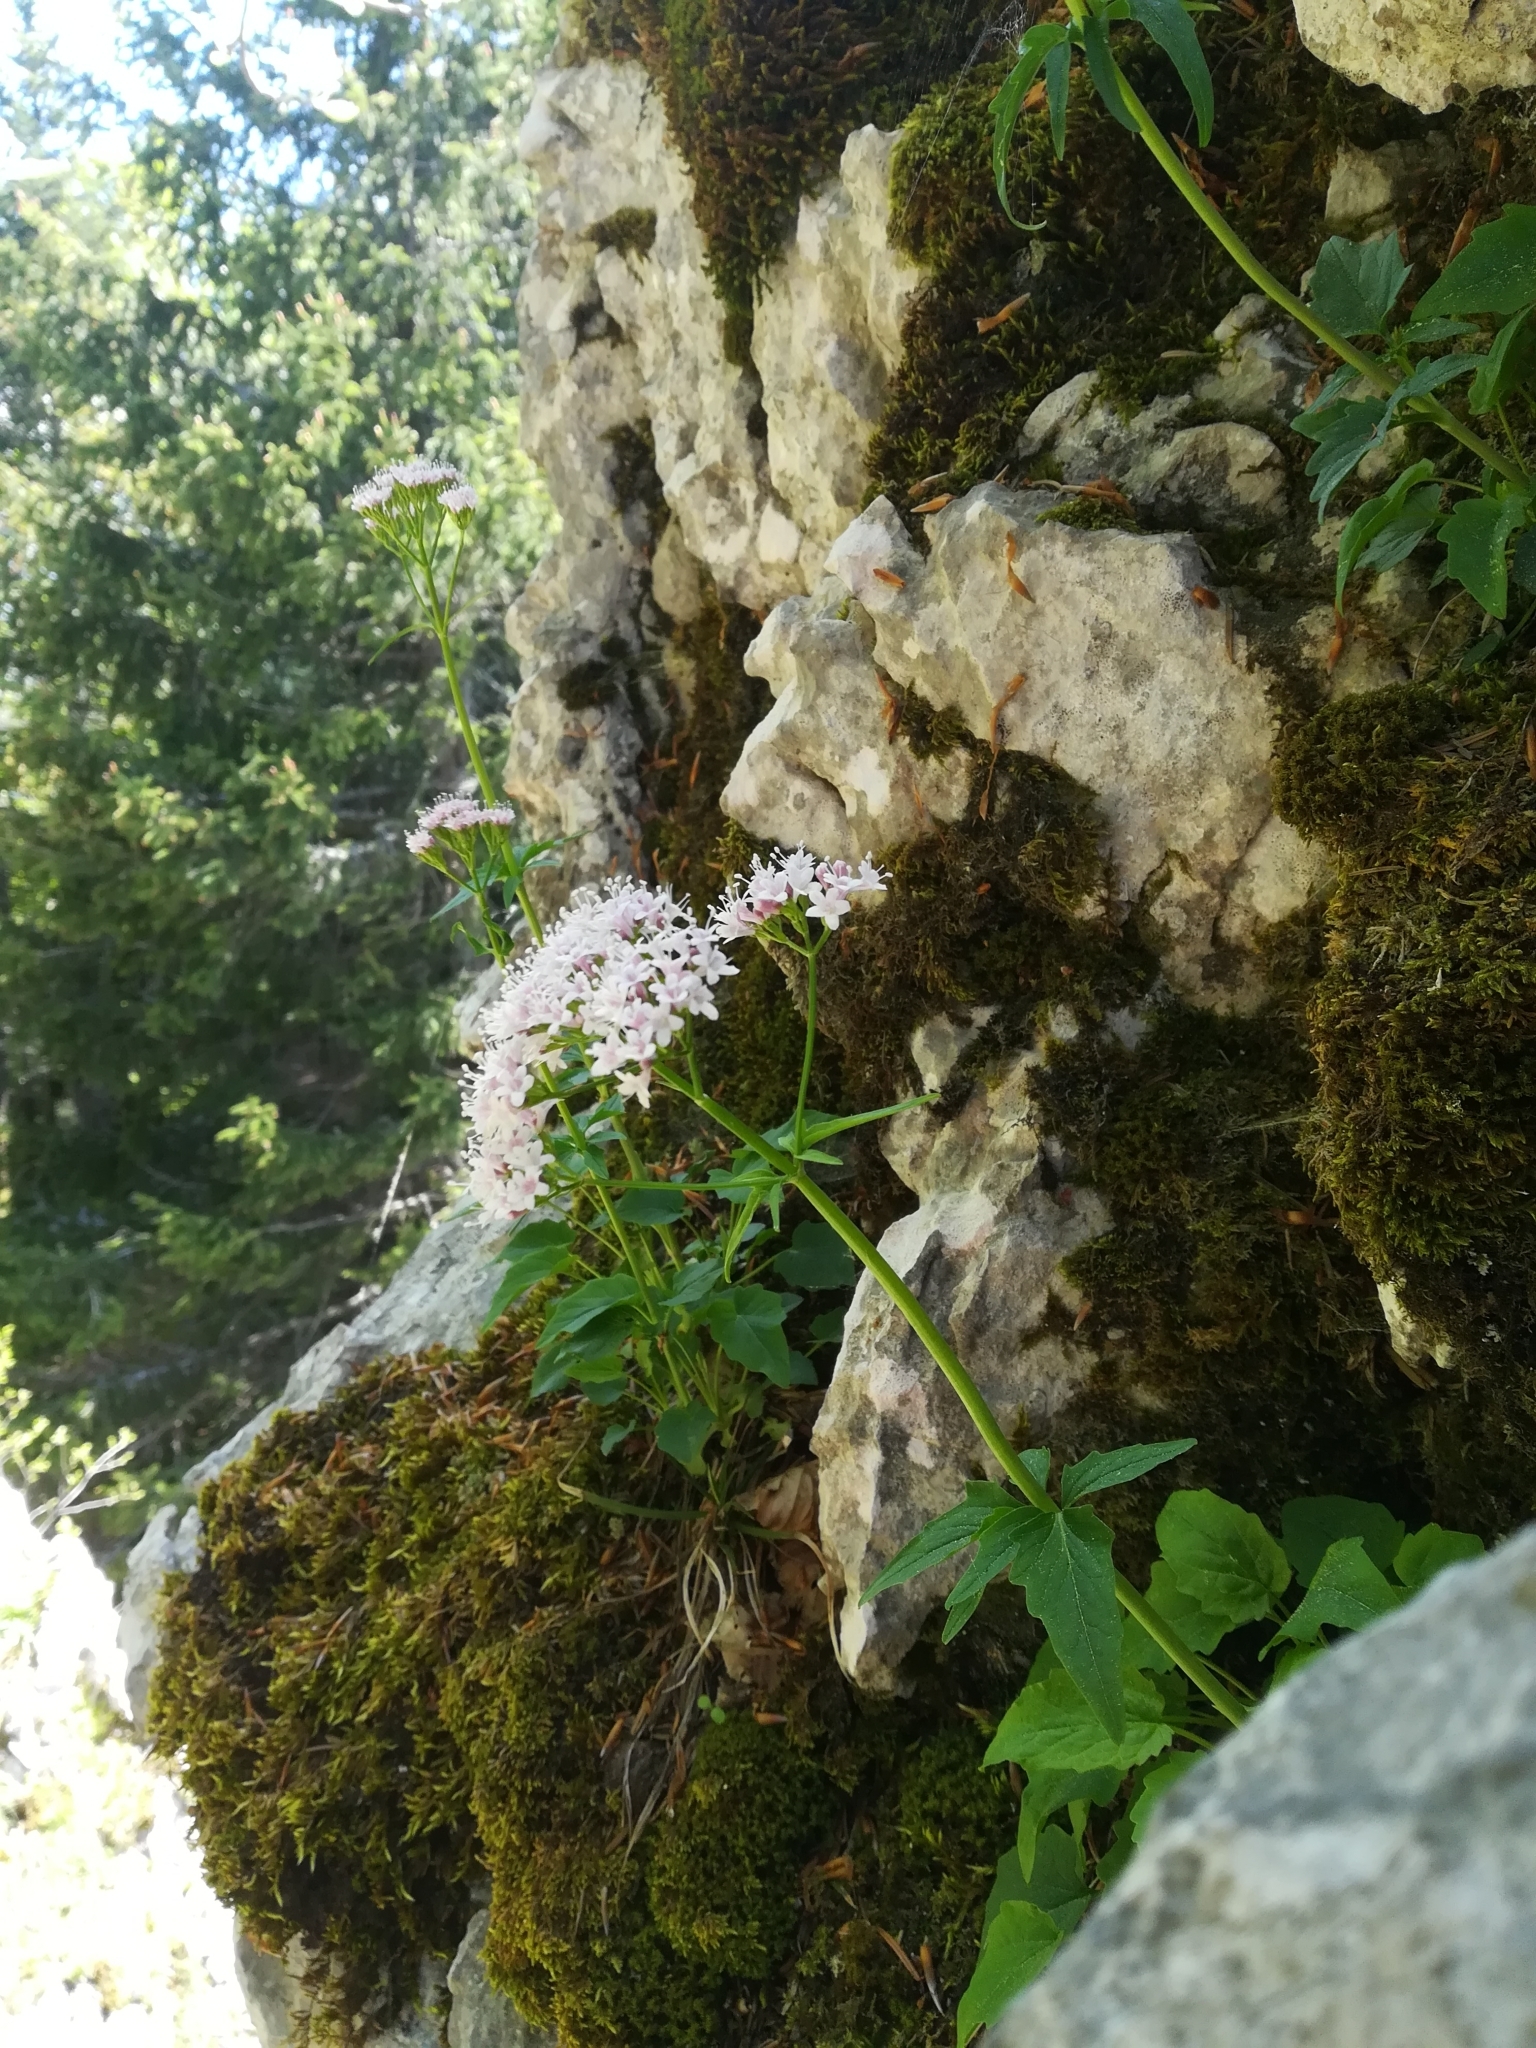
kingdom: Plantae
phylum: Tracheophyta
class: Magnoliopsida
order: Dipsacales
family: Caprifoliaceae
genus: Valeriana
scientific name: Valeriana tripteris
